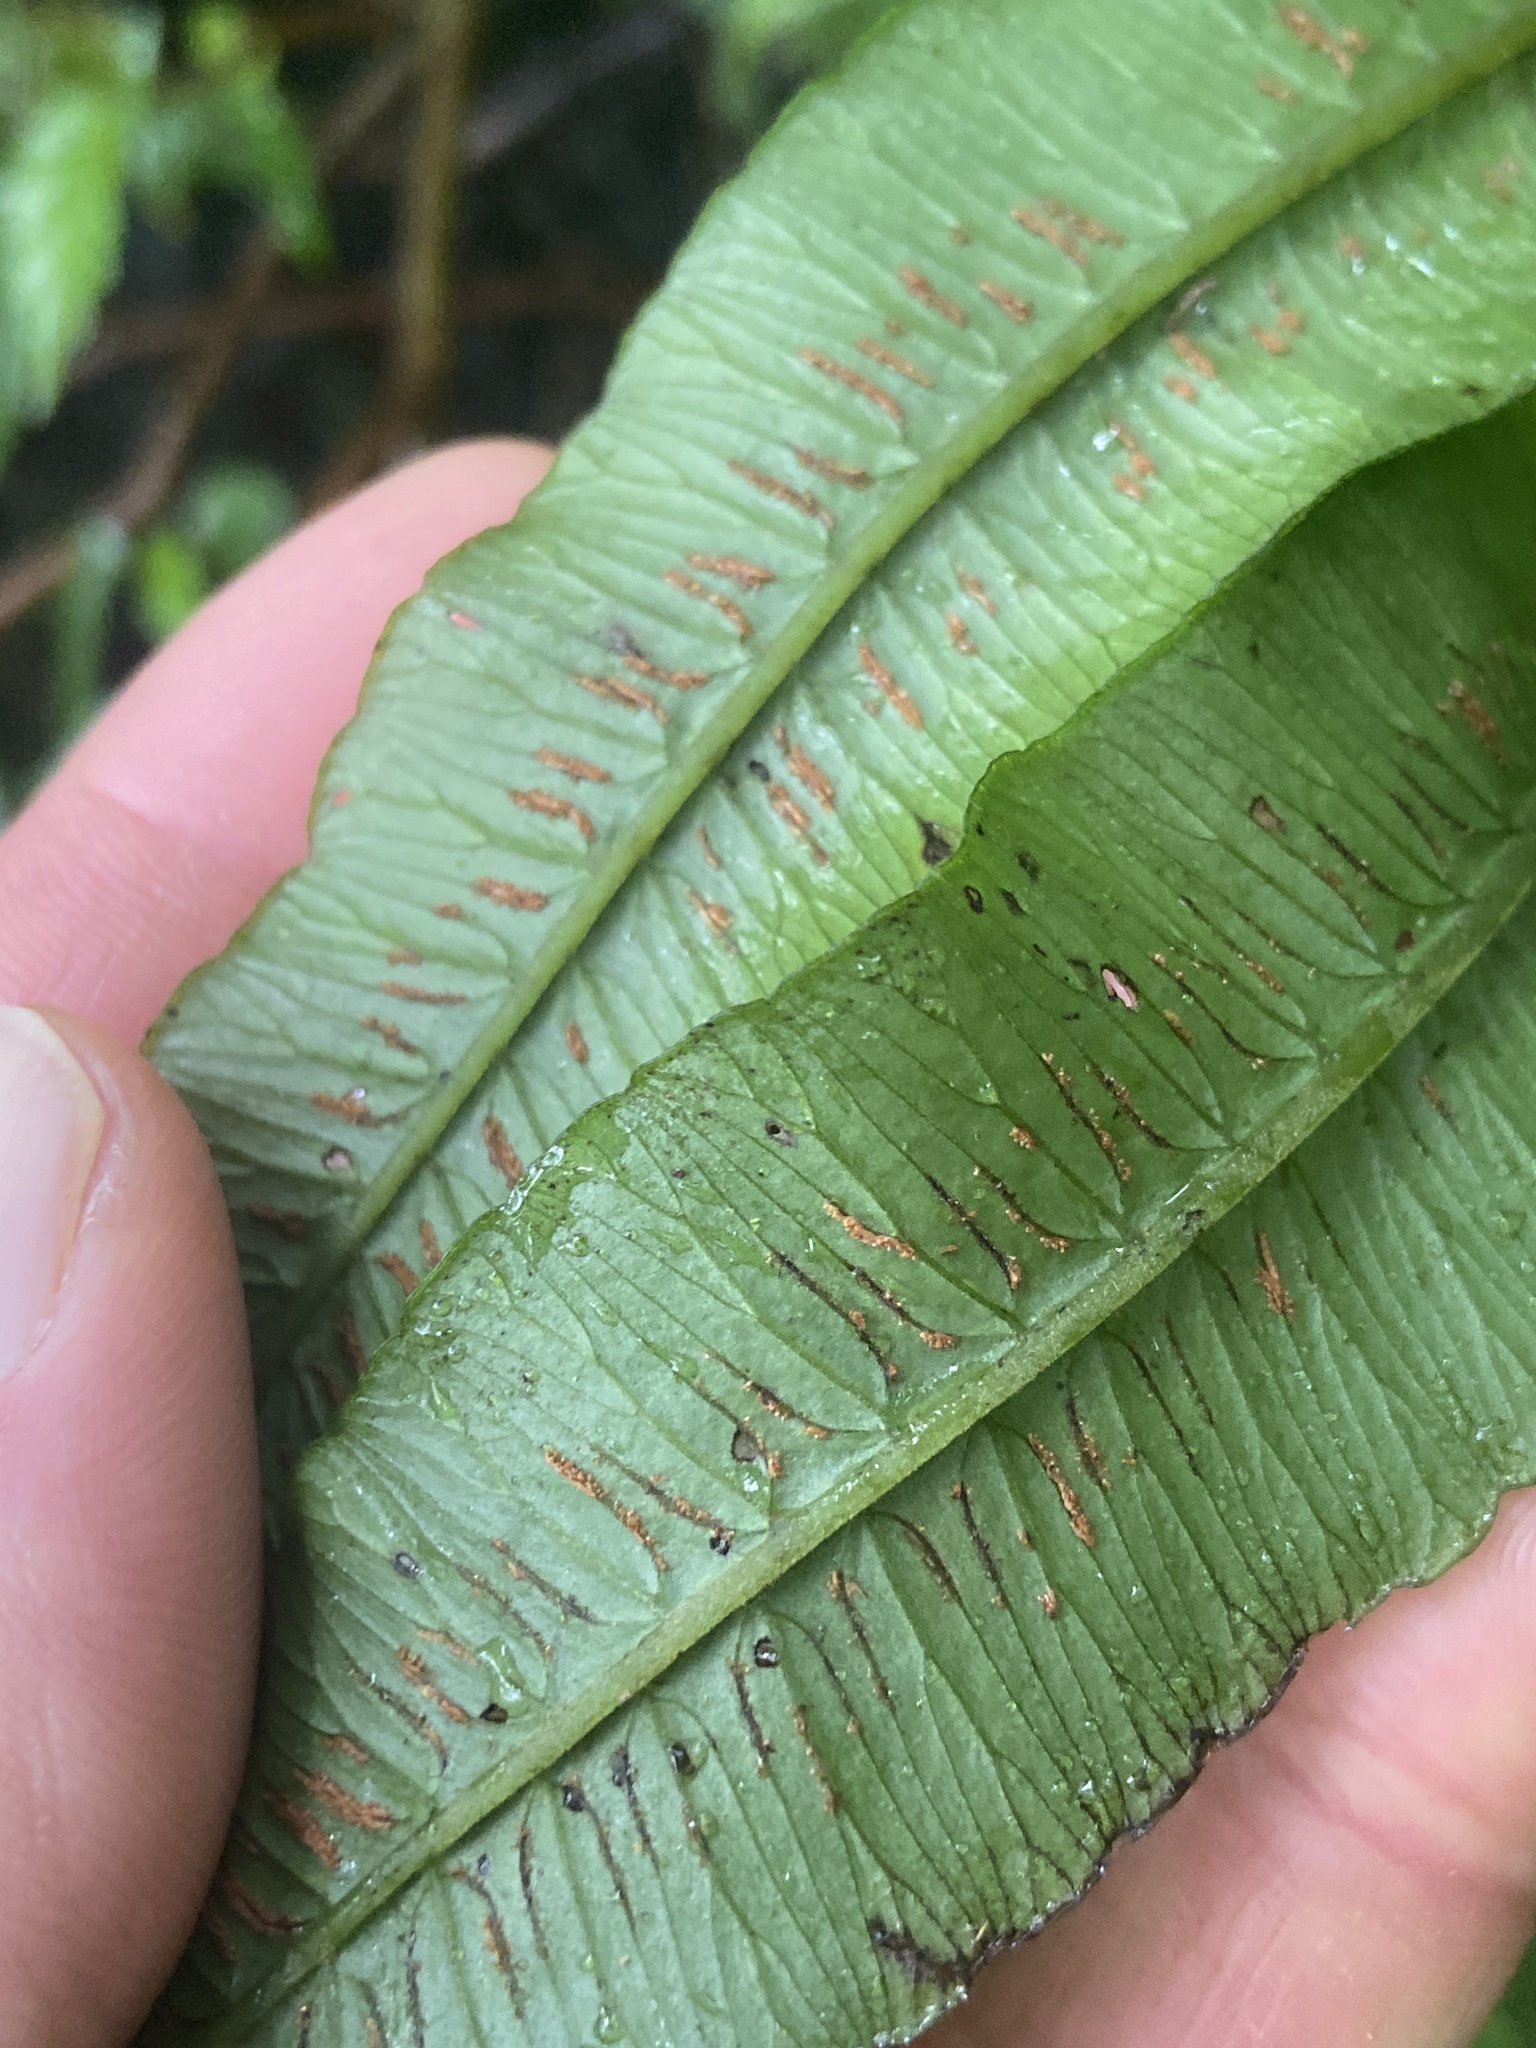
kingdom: Plantae
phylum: Tracheophyta
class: Polypodiopsida
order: Polypodiales
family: Athyriaceae
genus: Diplazium
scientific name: Diplazium centripetale
